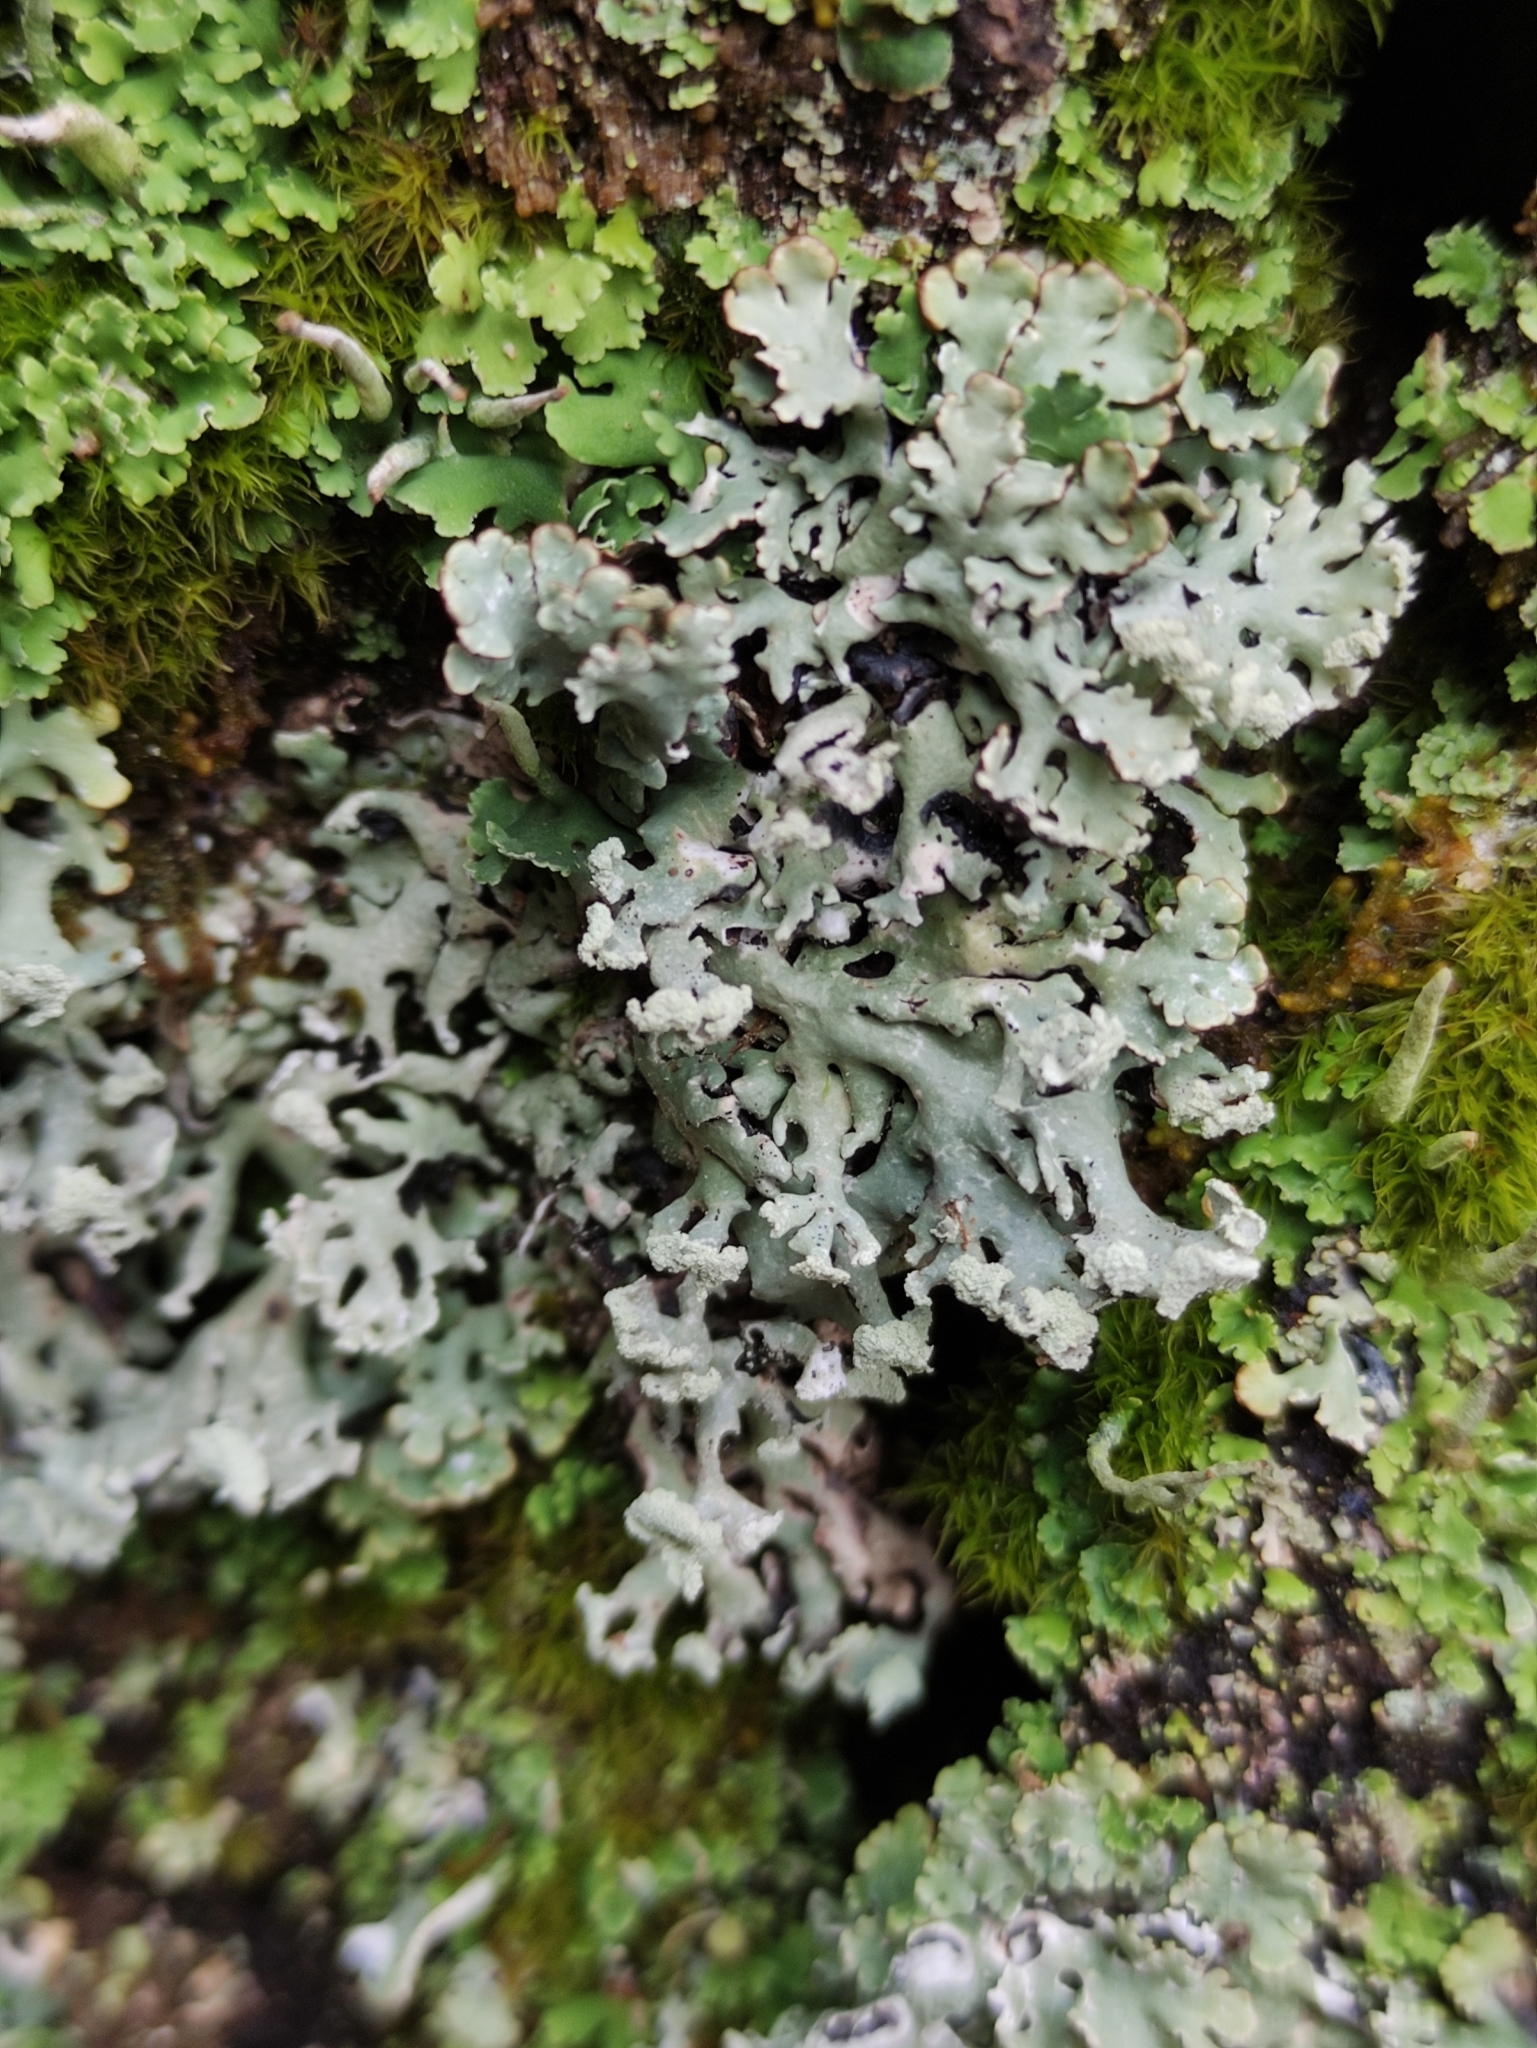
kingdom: Fungi
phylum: Ascomycota
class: Lecanoromycetes
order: Lecanorales
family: Parmeliaceae
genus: Hypogymnia
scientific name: Hypogymnia physodes
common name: Dark crottle
